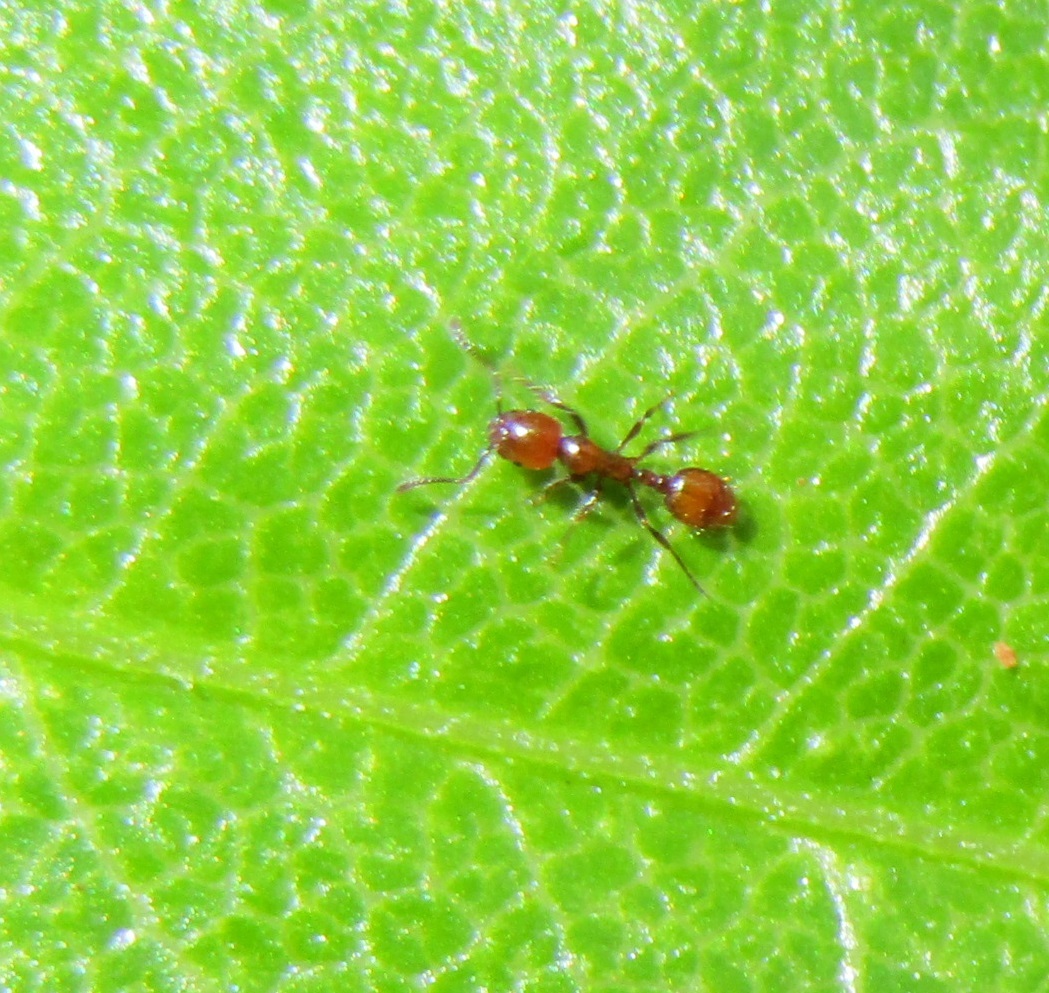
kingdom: Animalia
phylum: Arthropoda
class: Insecta
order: Hymenoptera
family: Formicidae
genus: Monomorium
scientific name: Monomorium antarcticum
